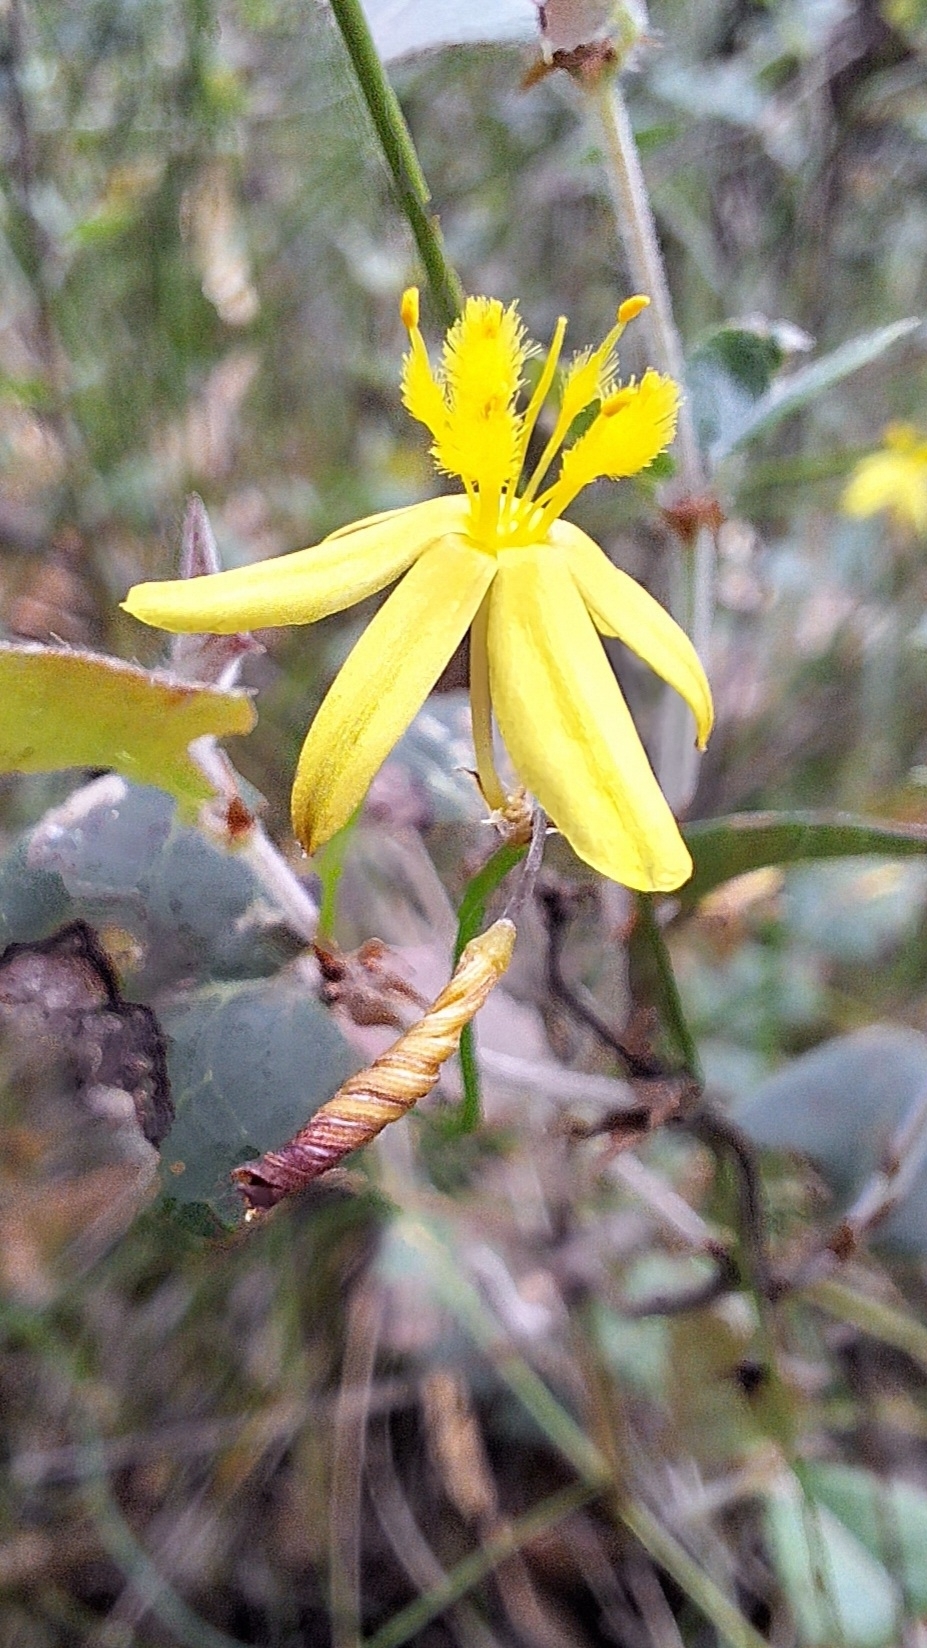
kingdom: Plantae
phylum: Tracheophyta
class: Liliopsida
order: Asparagales
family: Asphodelaceae
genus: Tricoryne
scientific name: Tricoryne elatior
